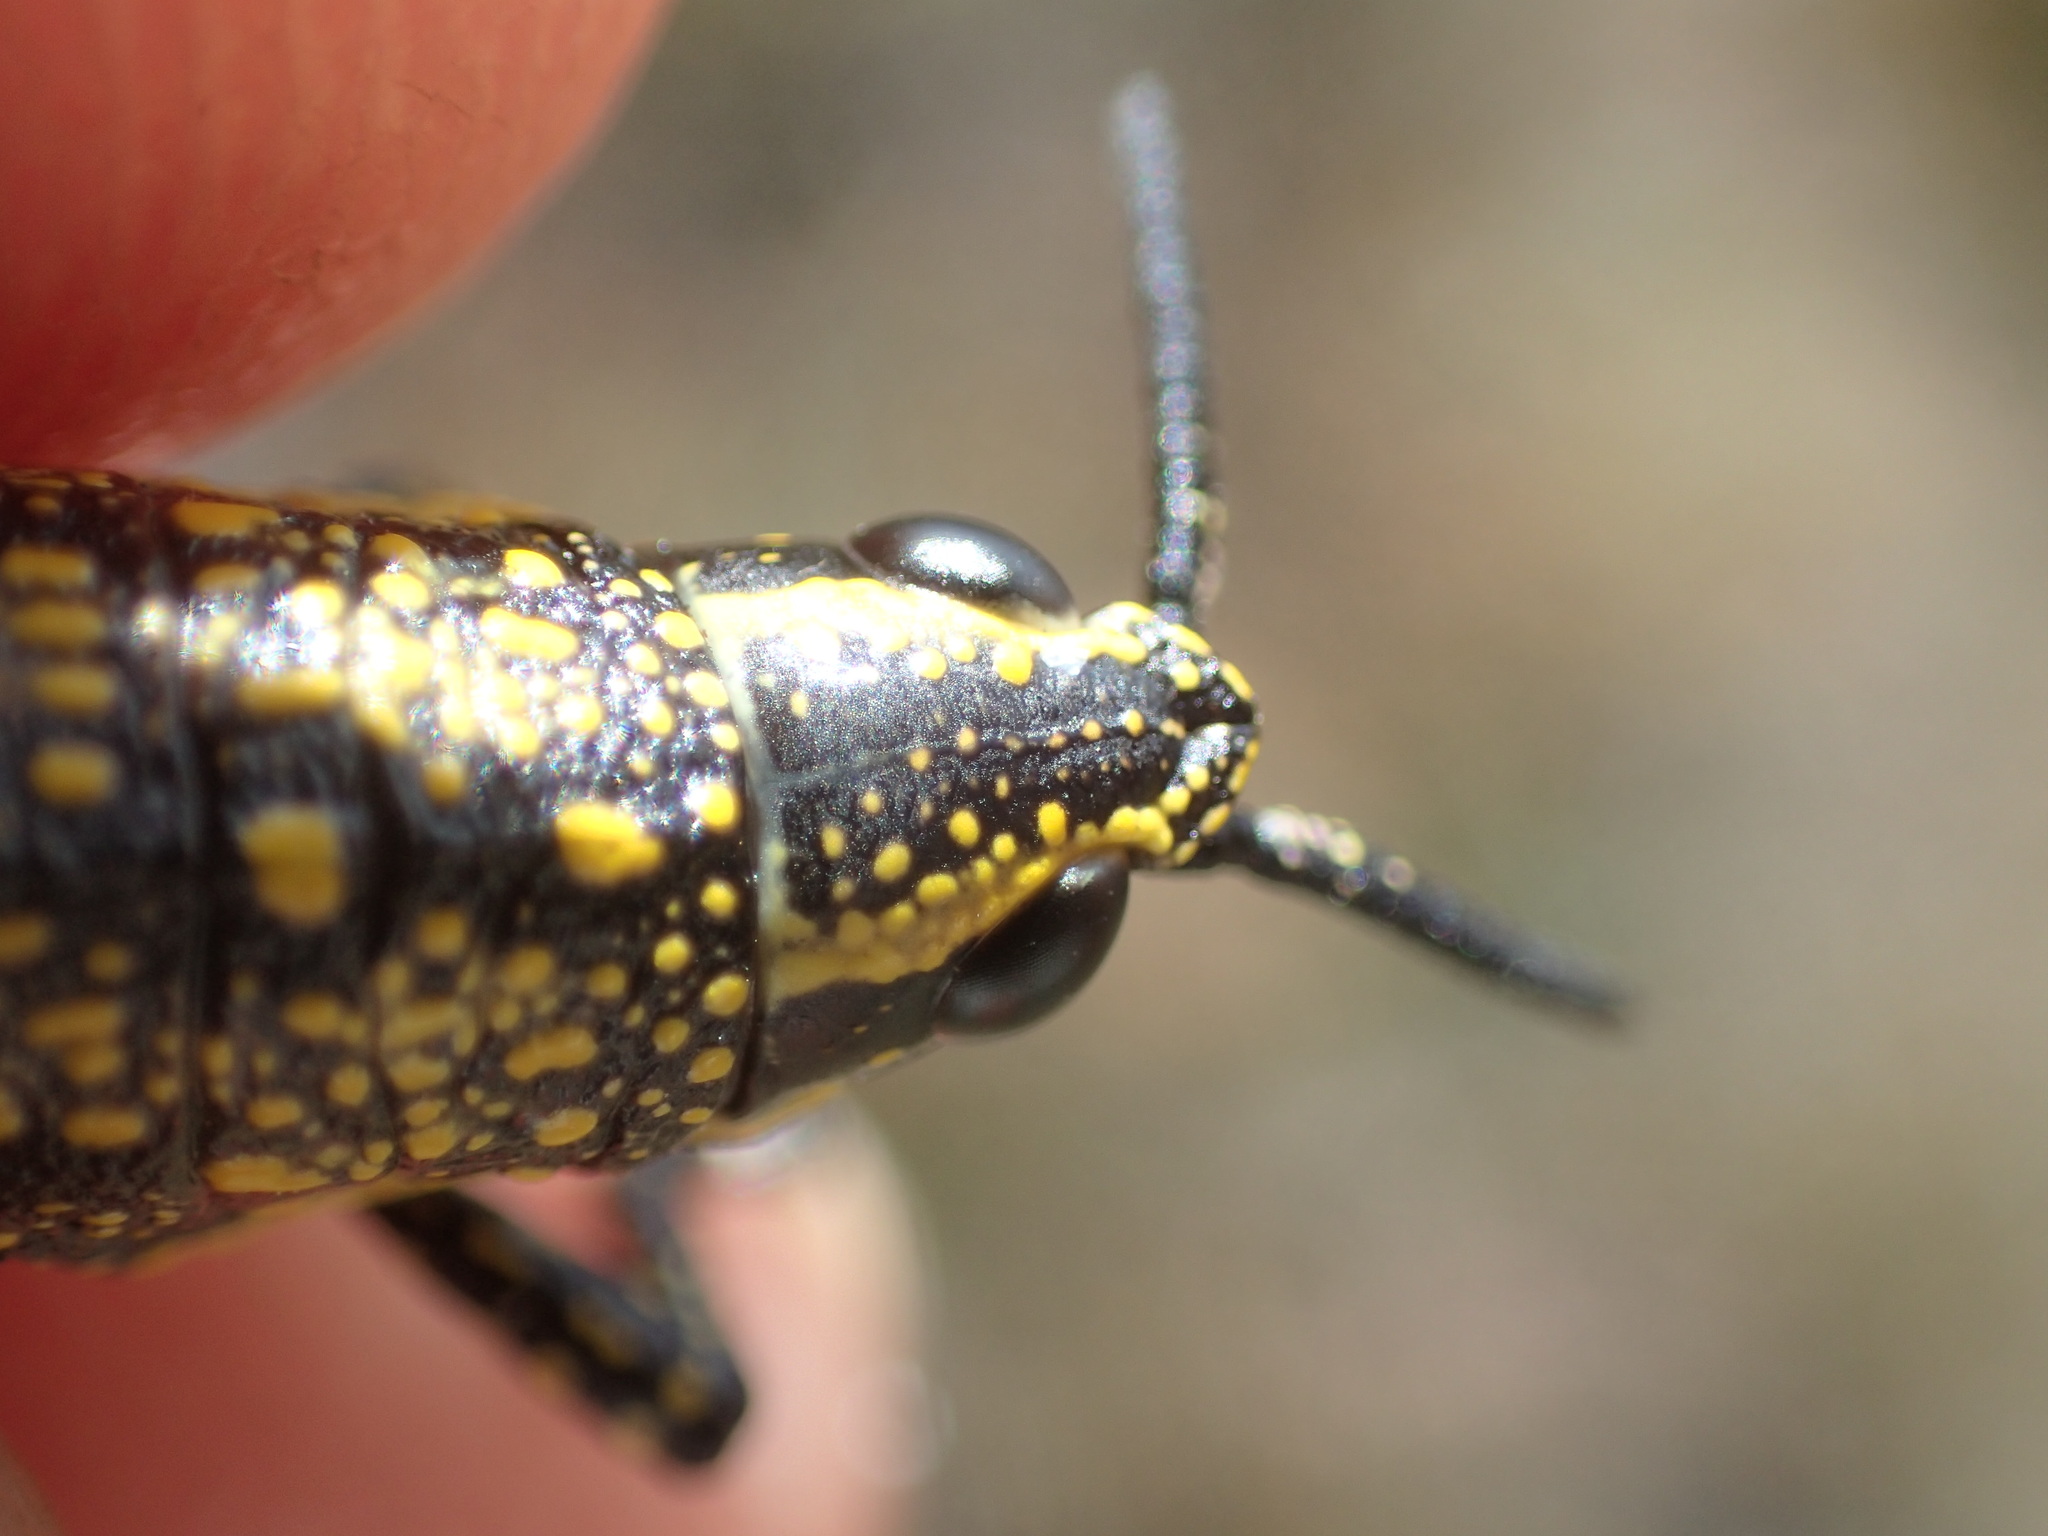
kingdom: Animalia
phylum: Arthropoda
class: Insecta
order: Orthoptera
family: Pyrgomorphidae
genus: Monistria
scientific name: Monistria concinna
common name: Southern pyrgomorph
